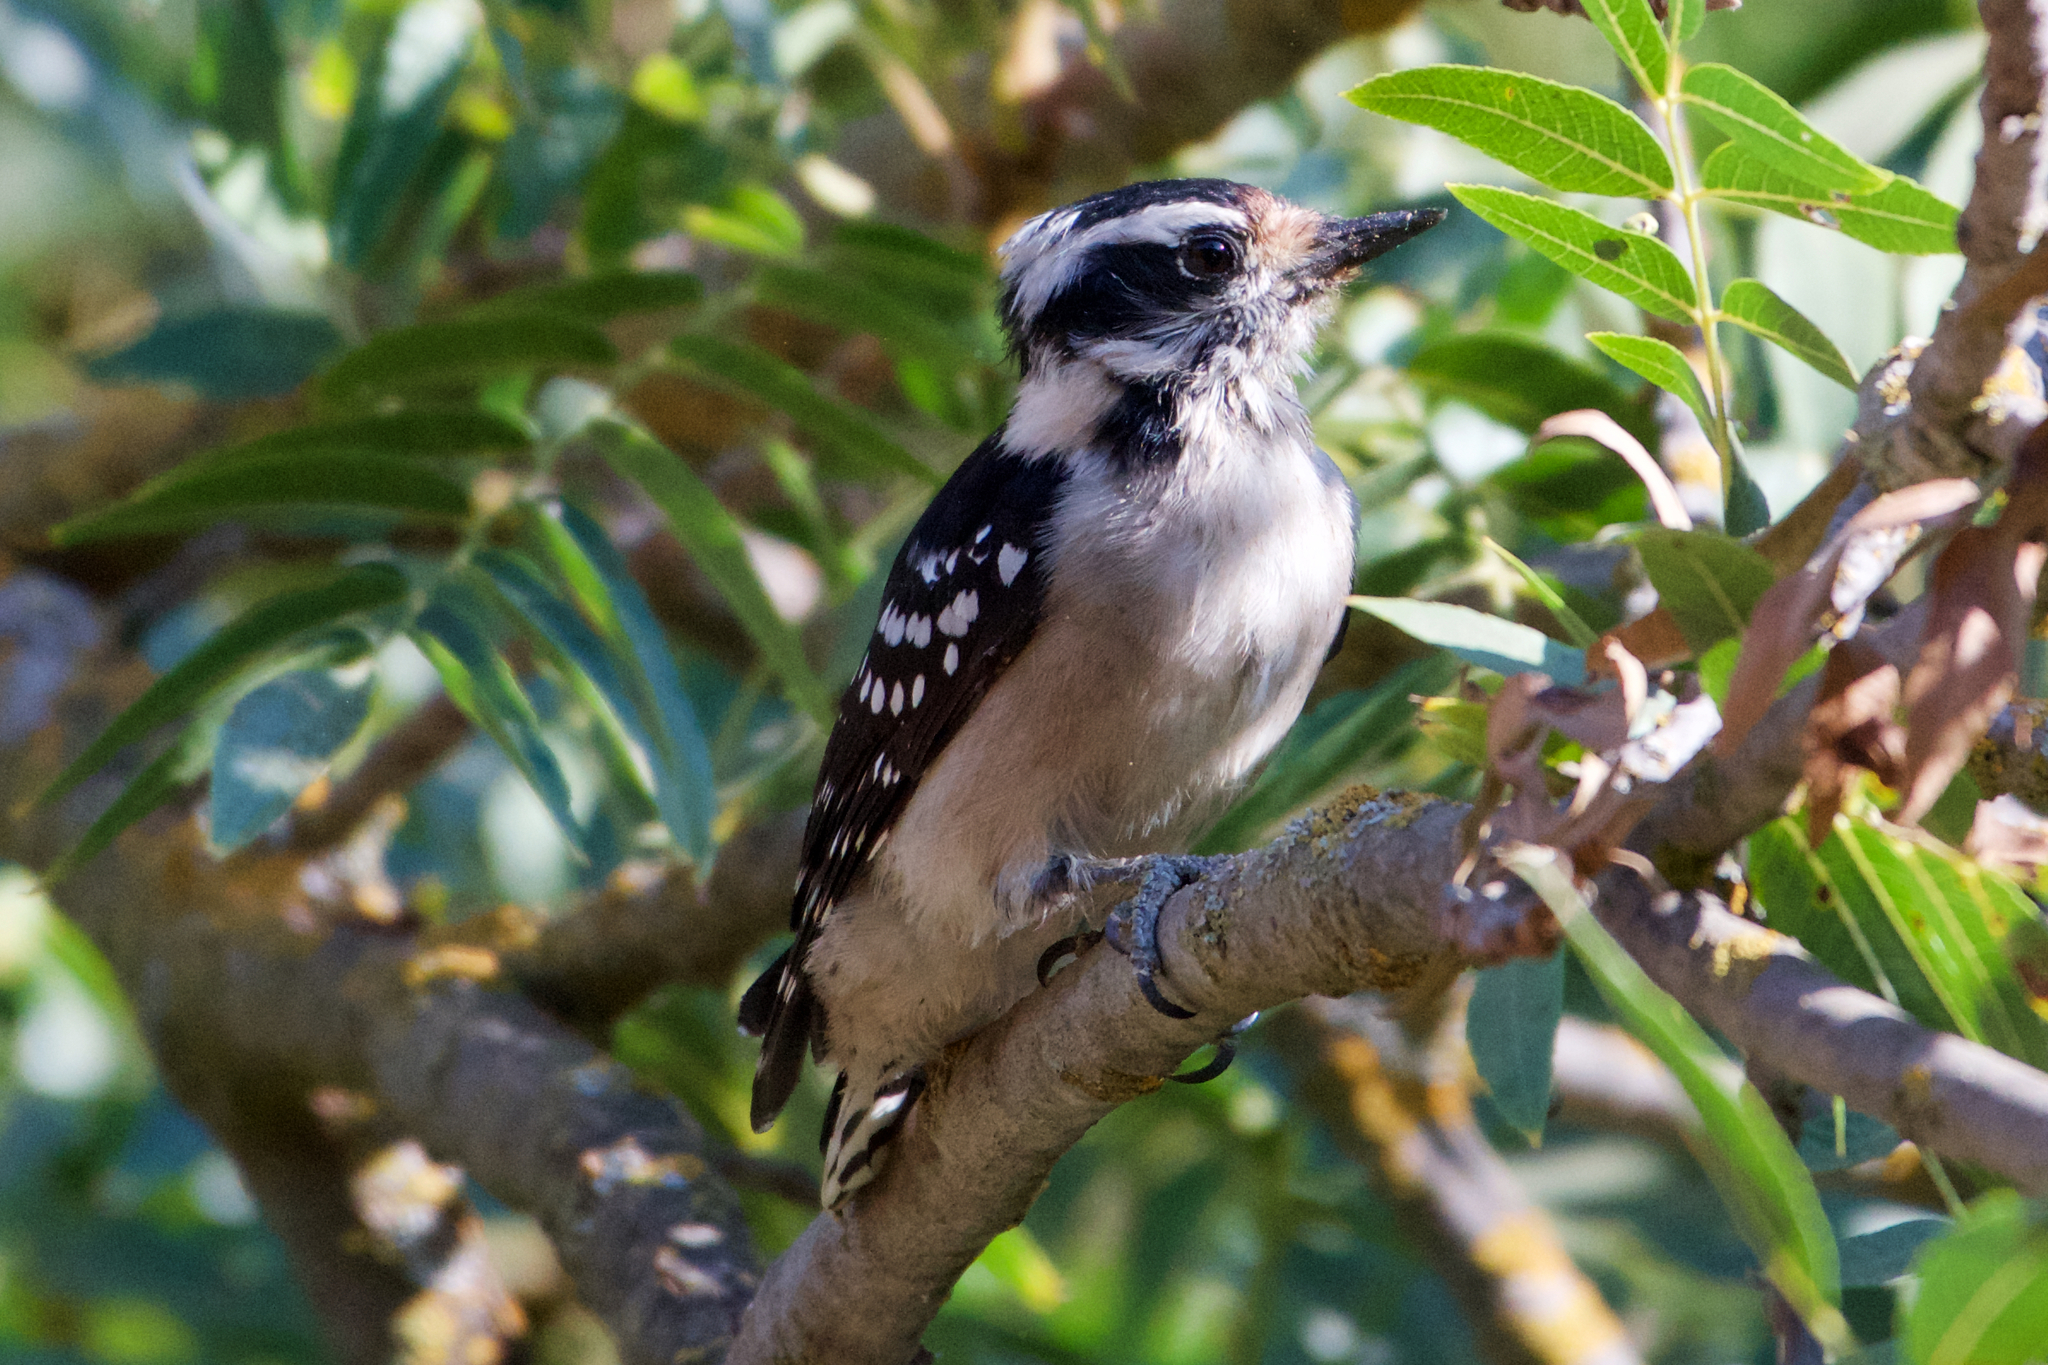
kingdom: Animalia
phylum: Chordata
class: Aves
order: Piciformes
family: Picidae
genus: Dryobates
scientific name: Dryobates pubescens
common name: Downy woodpecker
